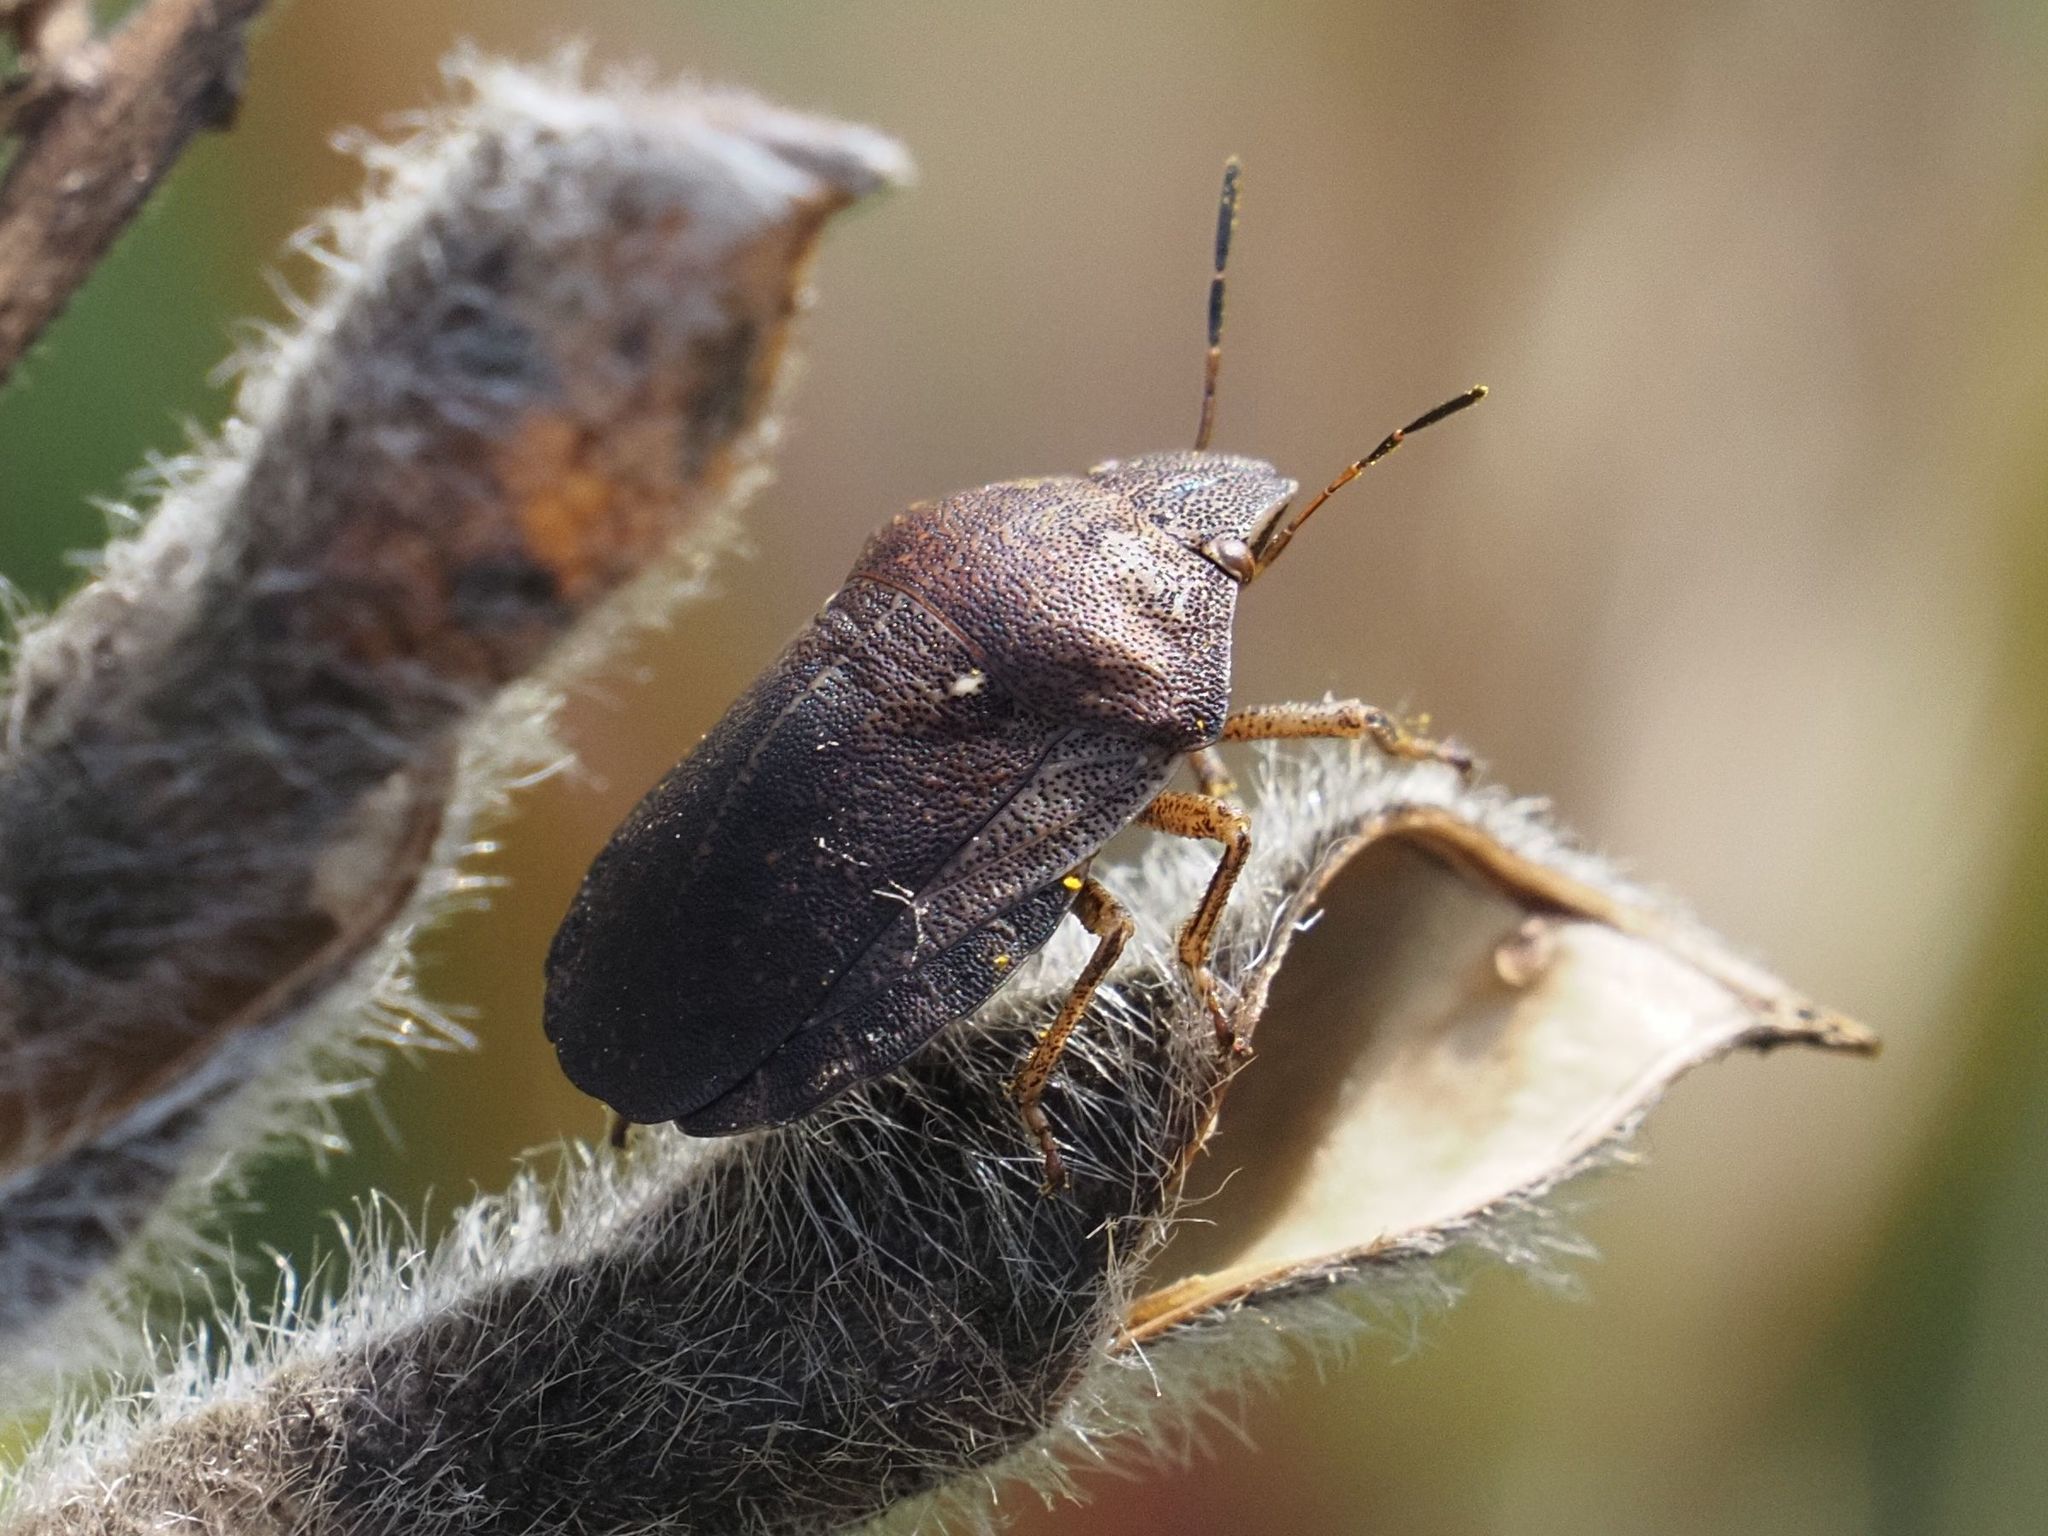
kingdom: Animalia
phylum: Arthropoda
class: Insecta
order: Hemiptera
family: Scutelleridae
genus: Eurygaster
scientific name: Eurygaster testudinaria
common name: Tortoise bug
